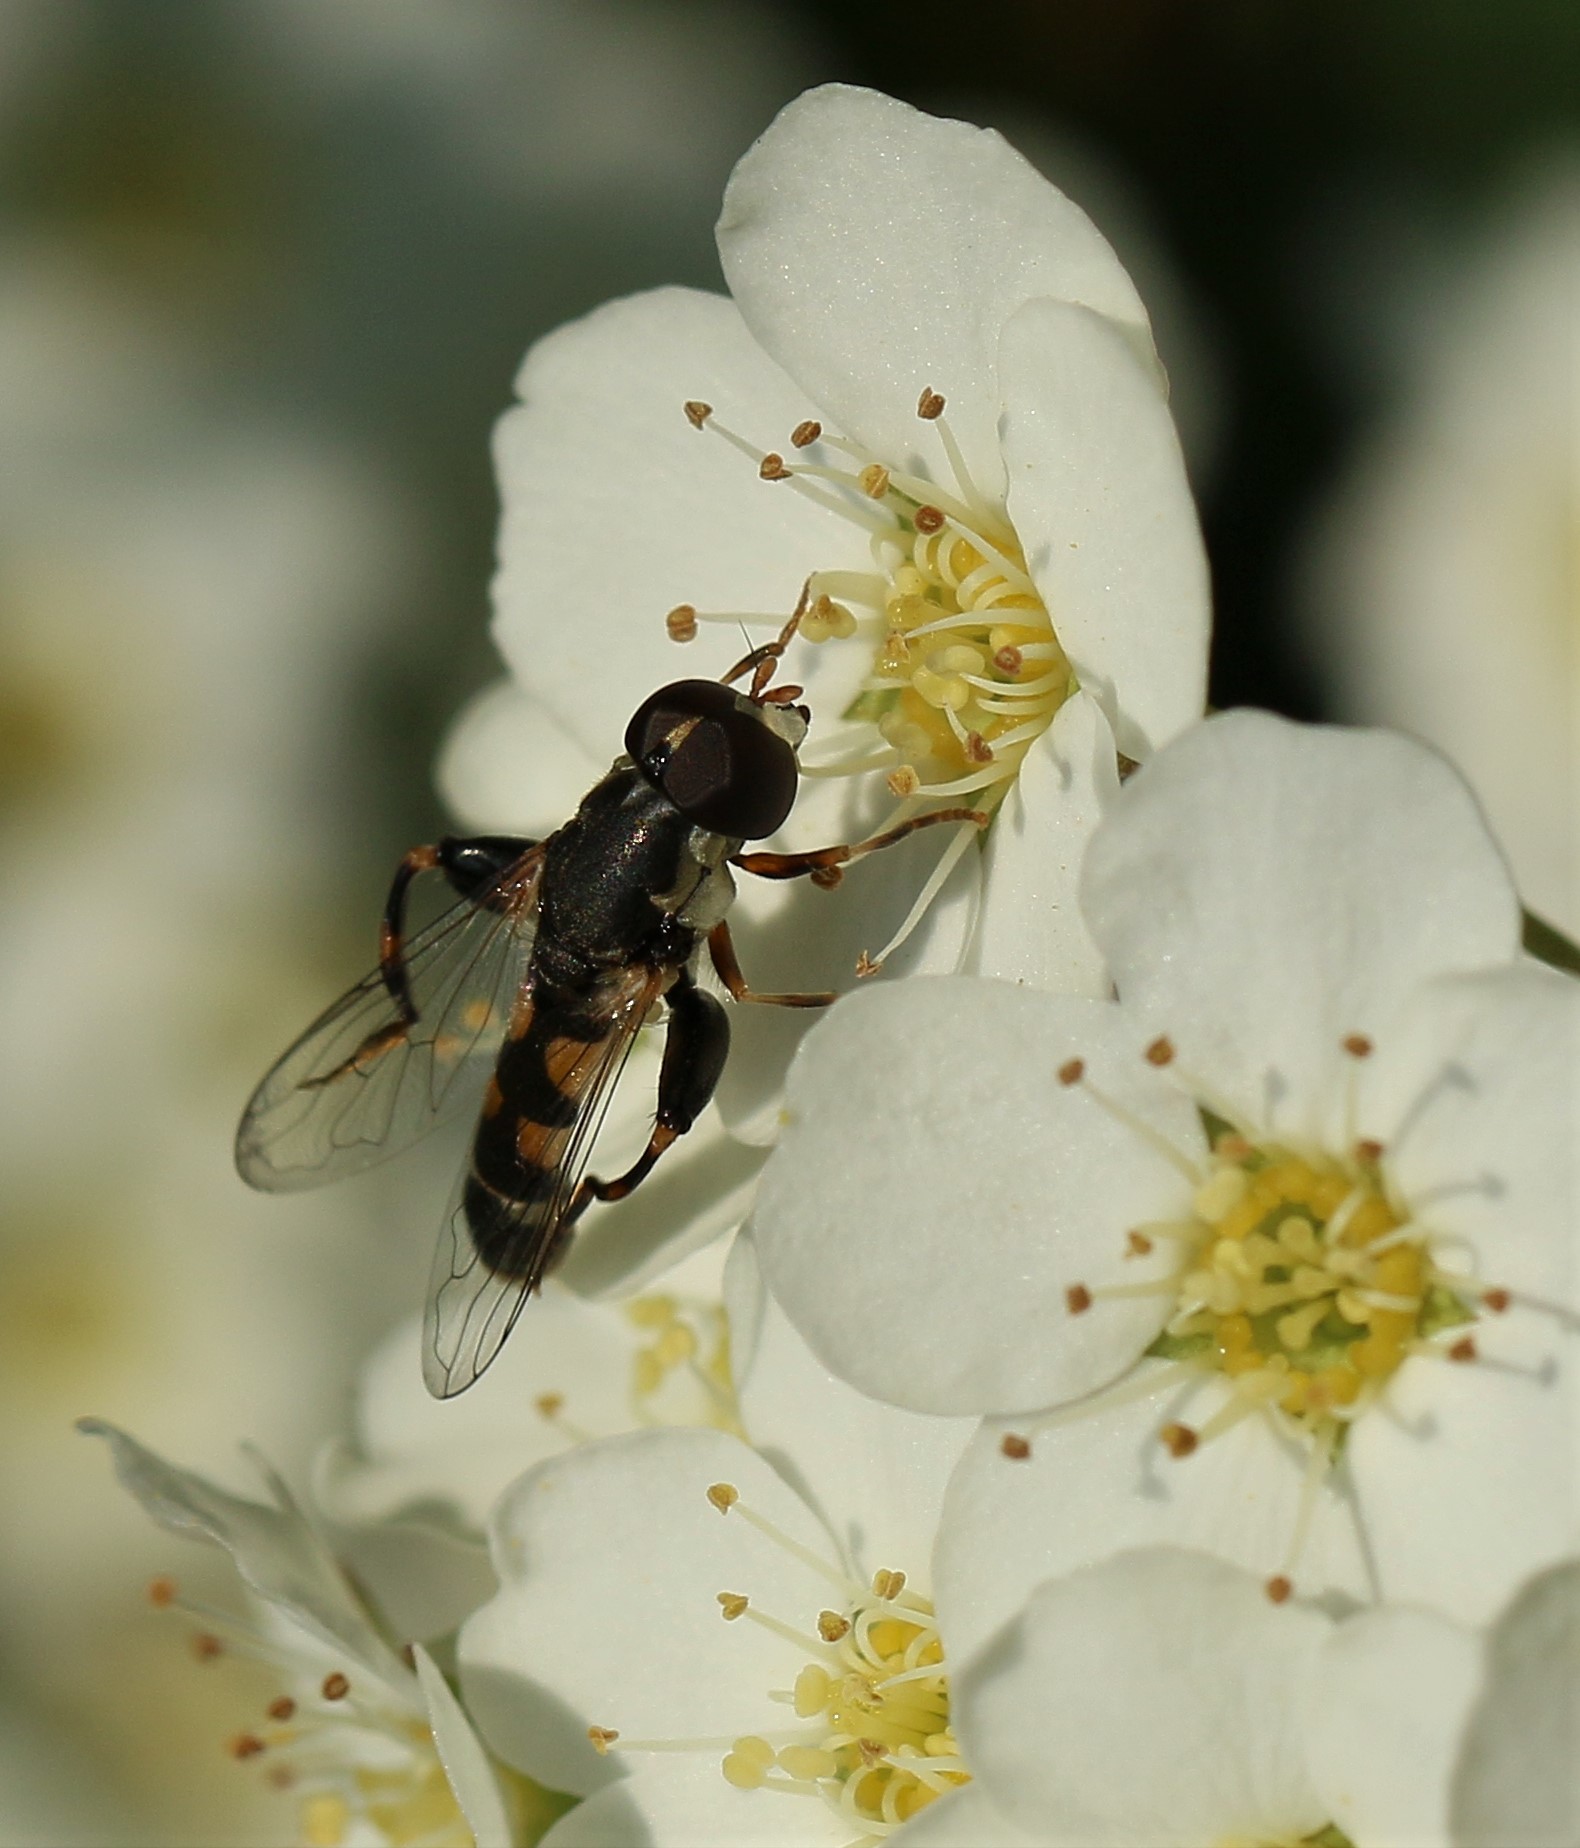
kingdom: Animalia
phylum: Arthropoda
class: Insecta
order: Diptera
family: Syrphidae
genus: Syritta
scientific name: Syritta pipiens
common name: Hover fly
